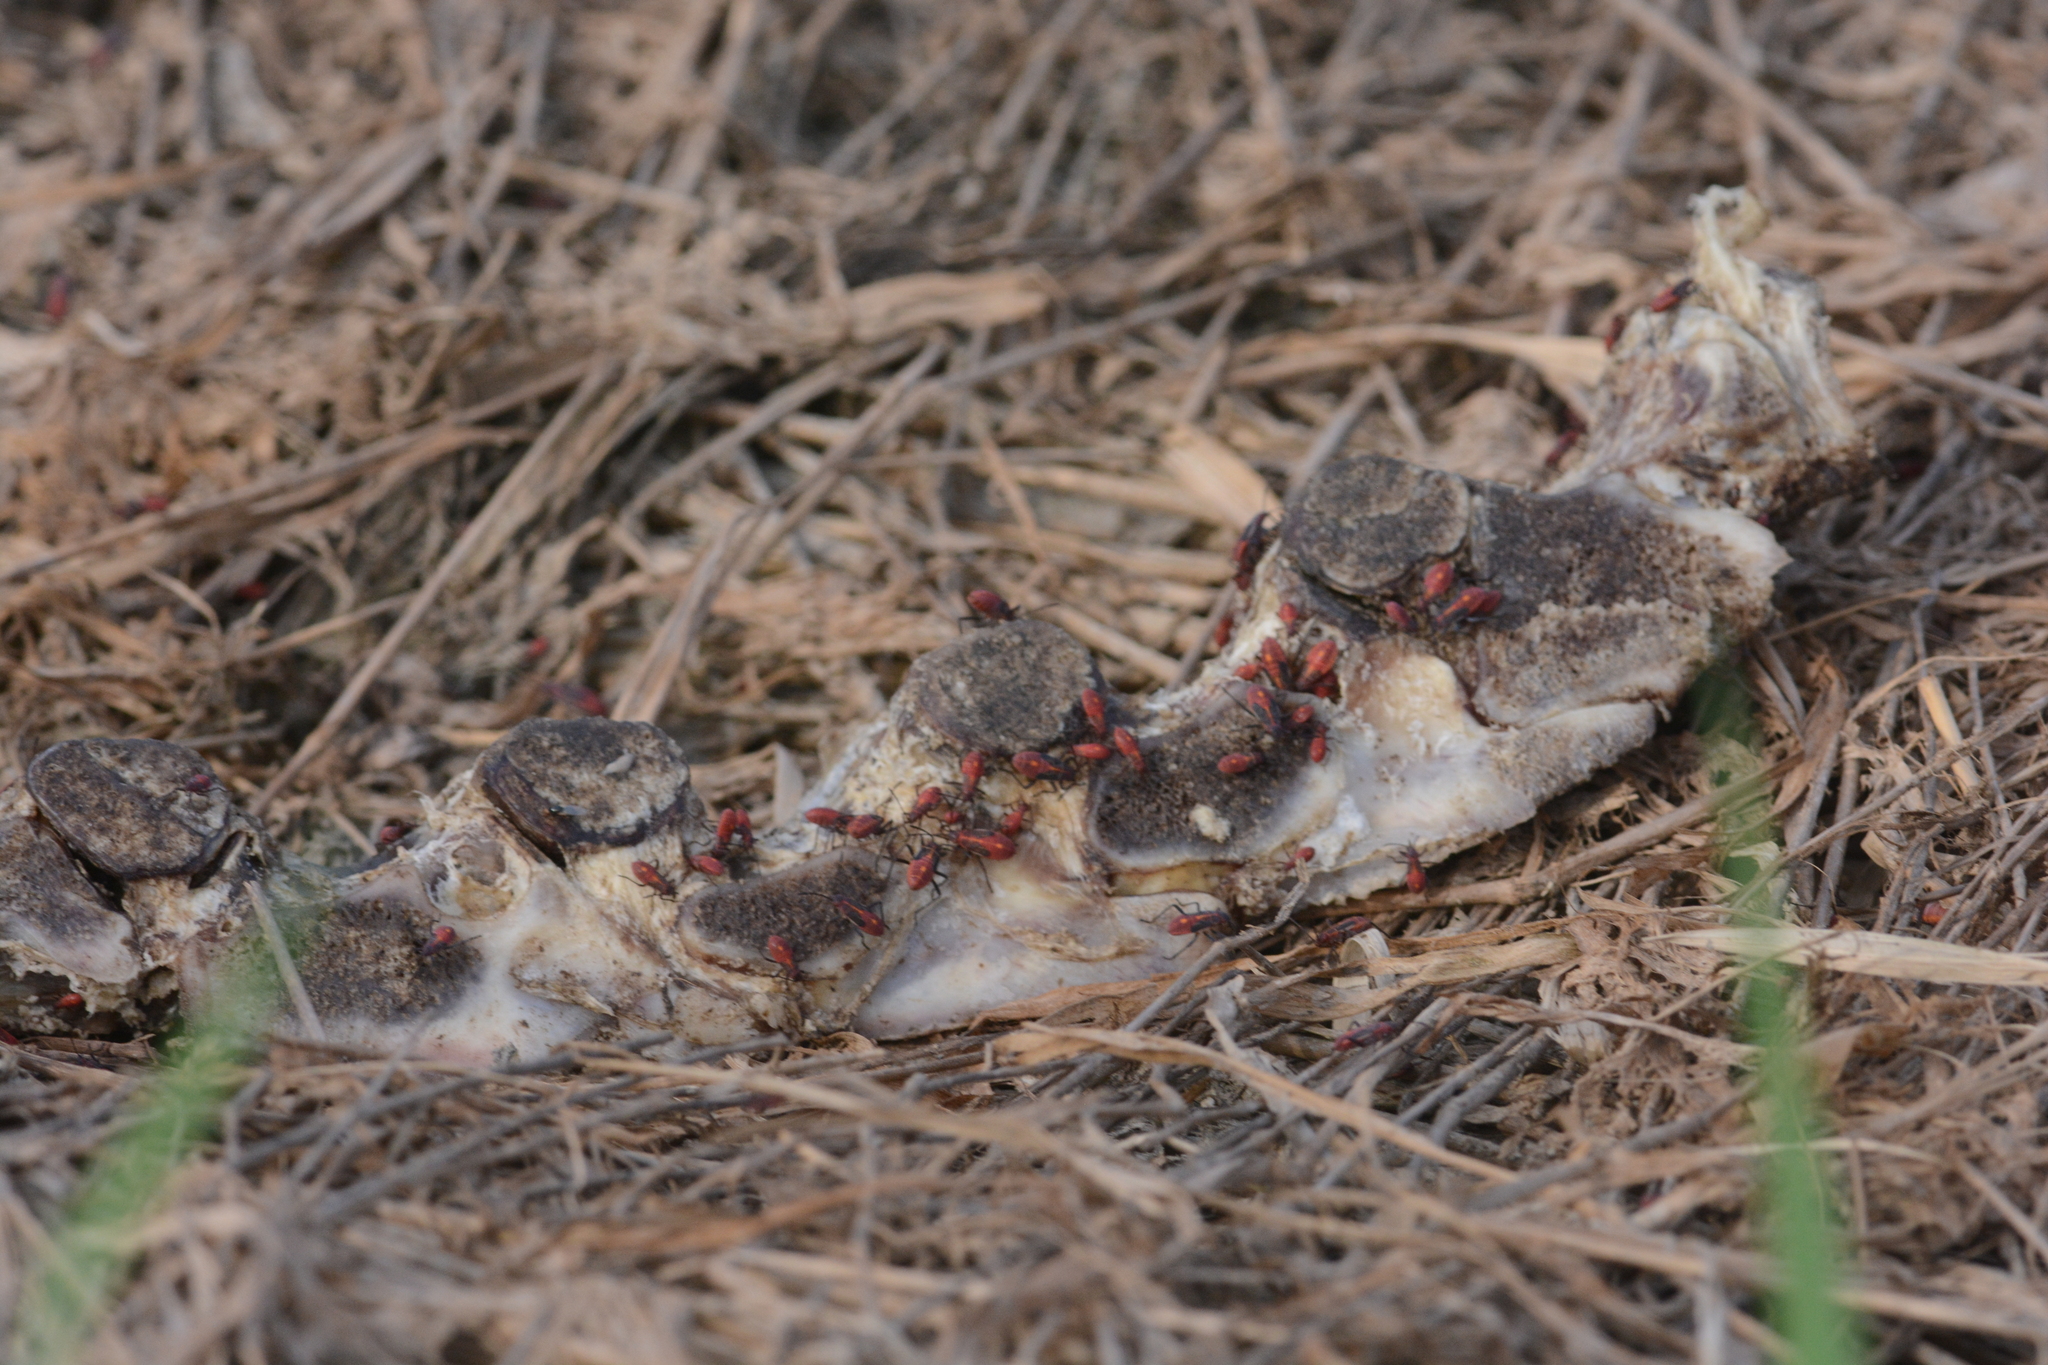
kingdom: Animalia
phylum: Arthropoda
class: Insecta
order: Hemiptera
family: Rhopalidae
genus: Boisea
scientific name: Boisea rubrolineata
